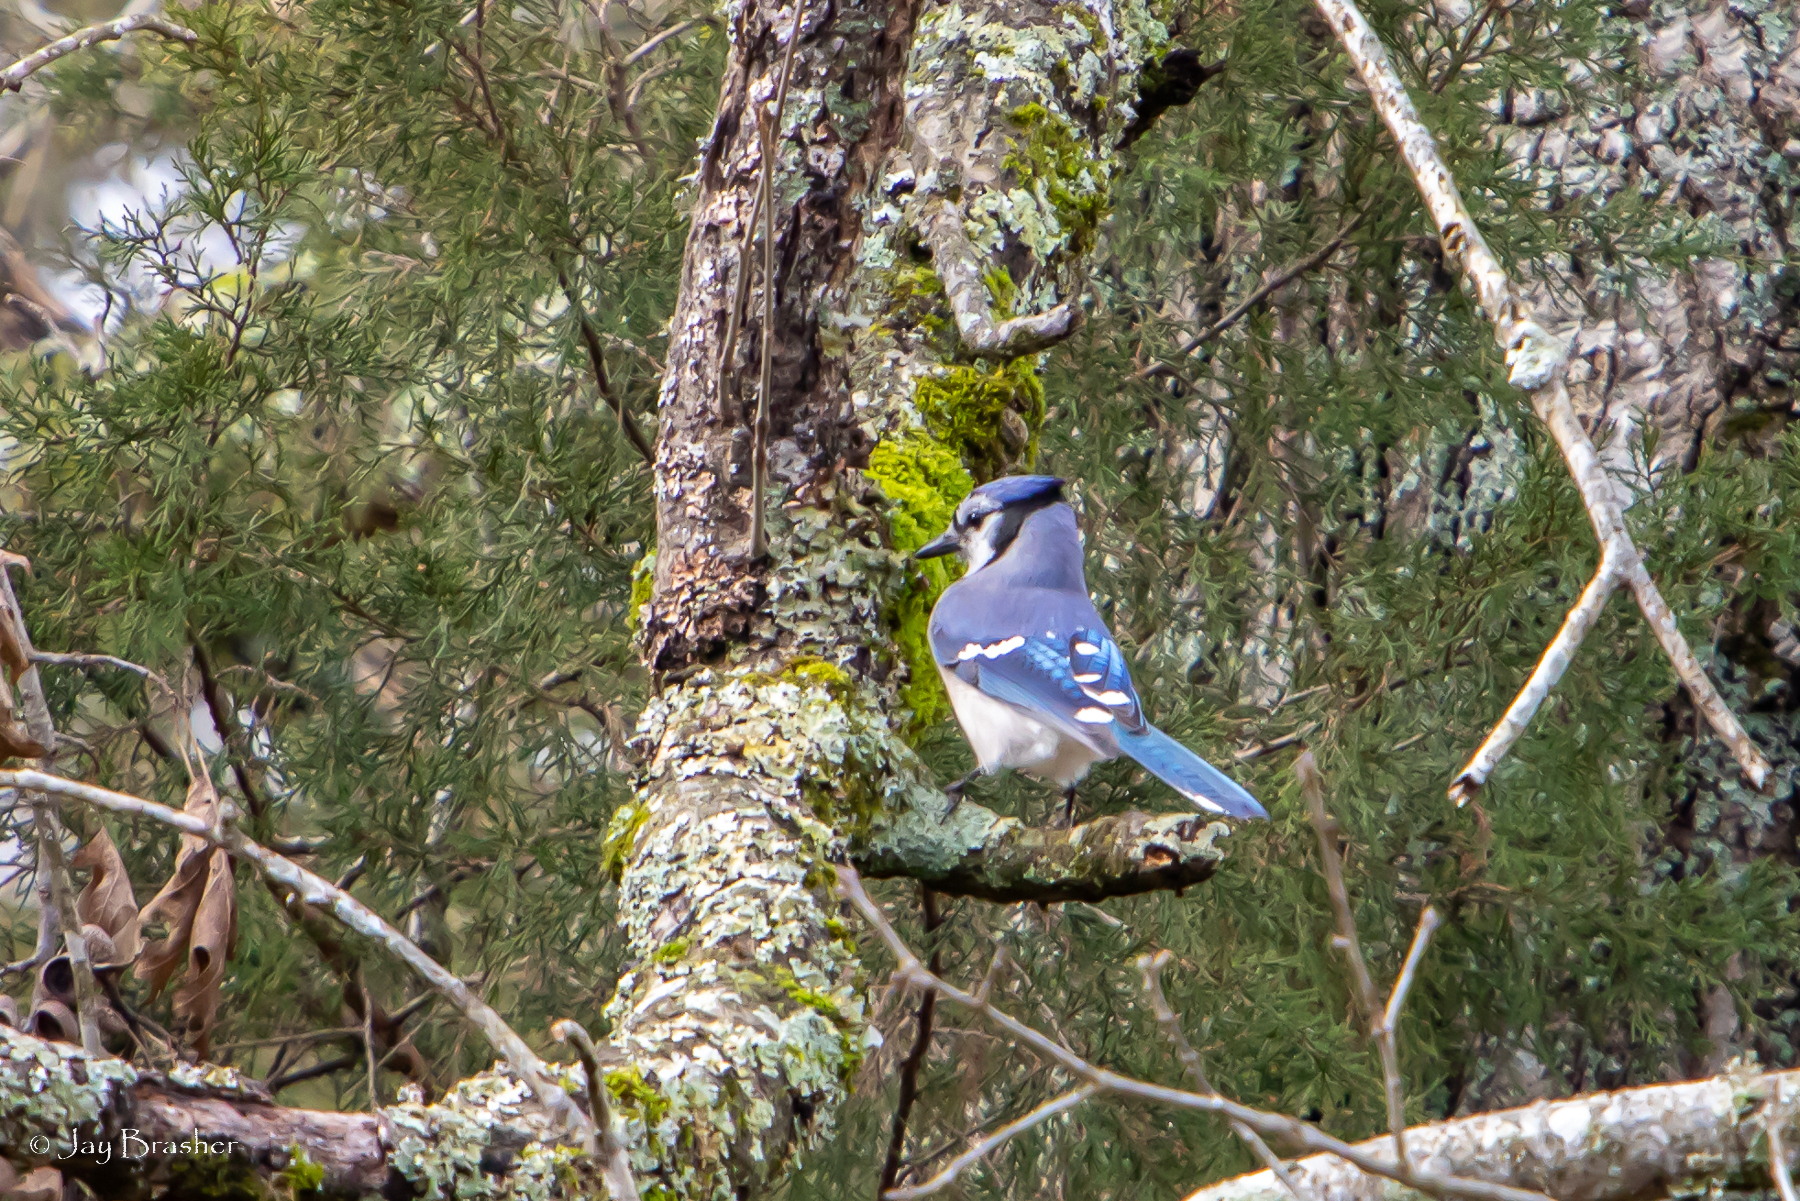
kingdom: Animalia
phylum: Chordata
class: Aves
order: Passeriformes
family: Corvidae
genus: Cyanocitta
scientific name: Cyanocitta cristata
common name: Blue jay
